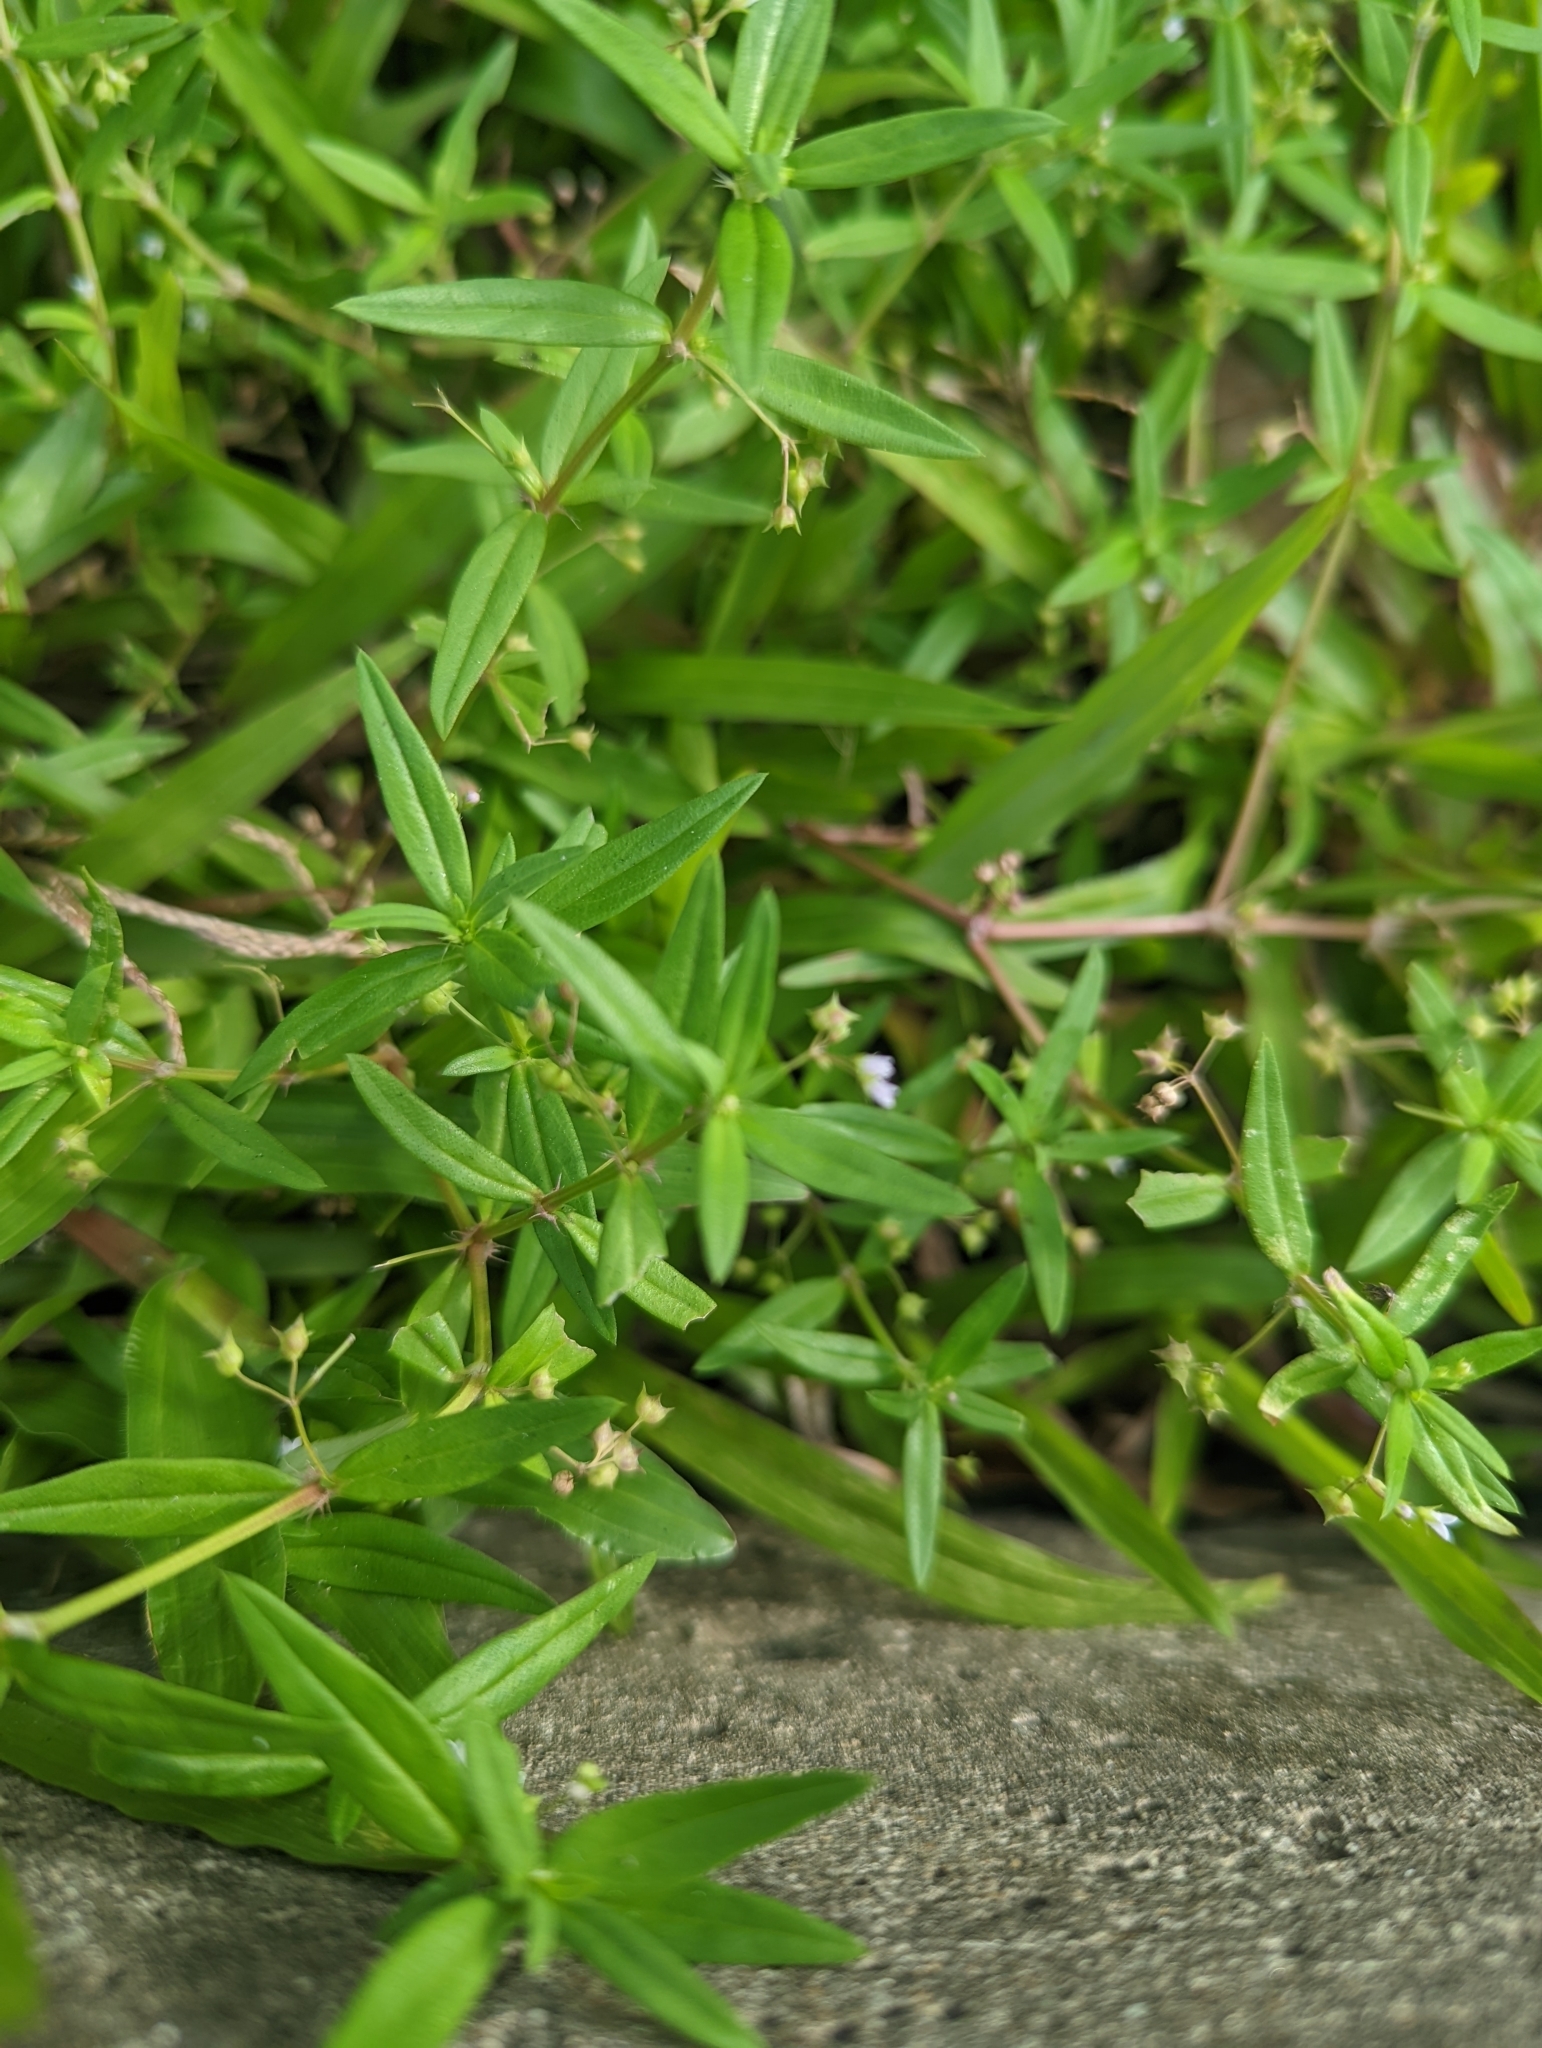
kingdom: Plantae
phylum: Tracheophyta
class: Magnoliopsida
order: Gentianales
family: Rubiaceae
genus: Oldenlandia
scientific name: Oldenlandia corymbosa
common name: Flat-top mille graines
